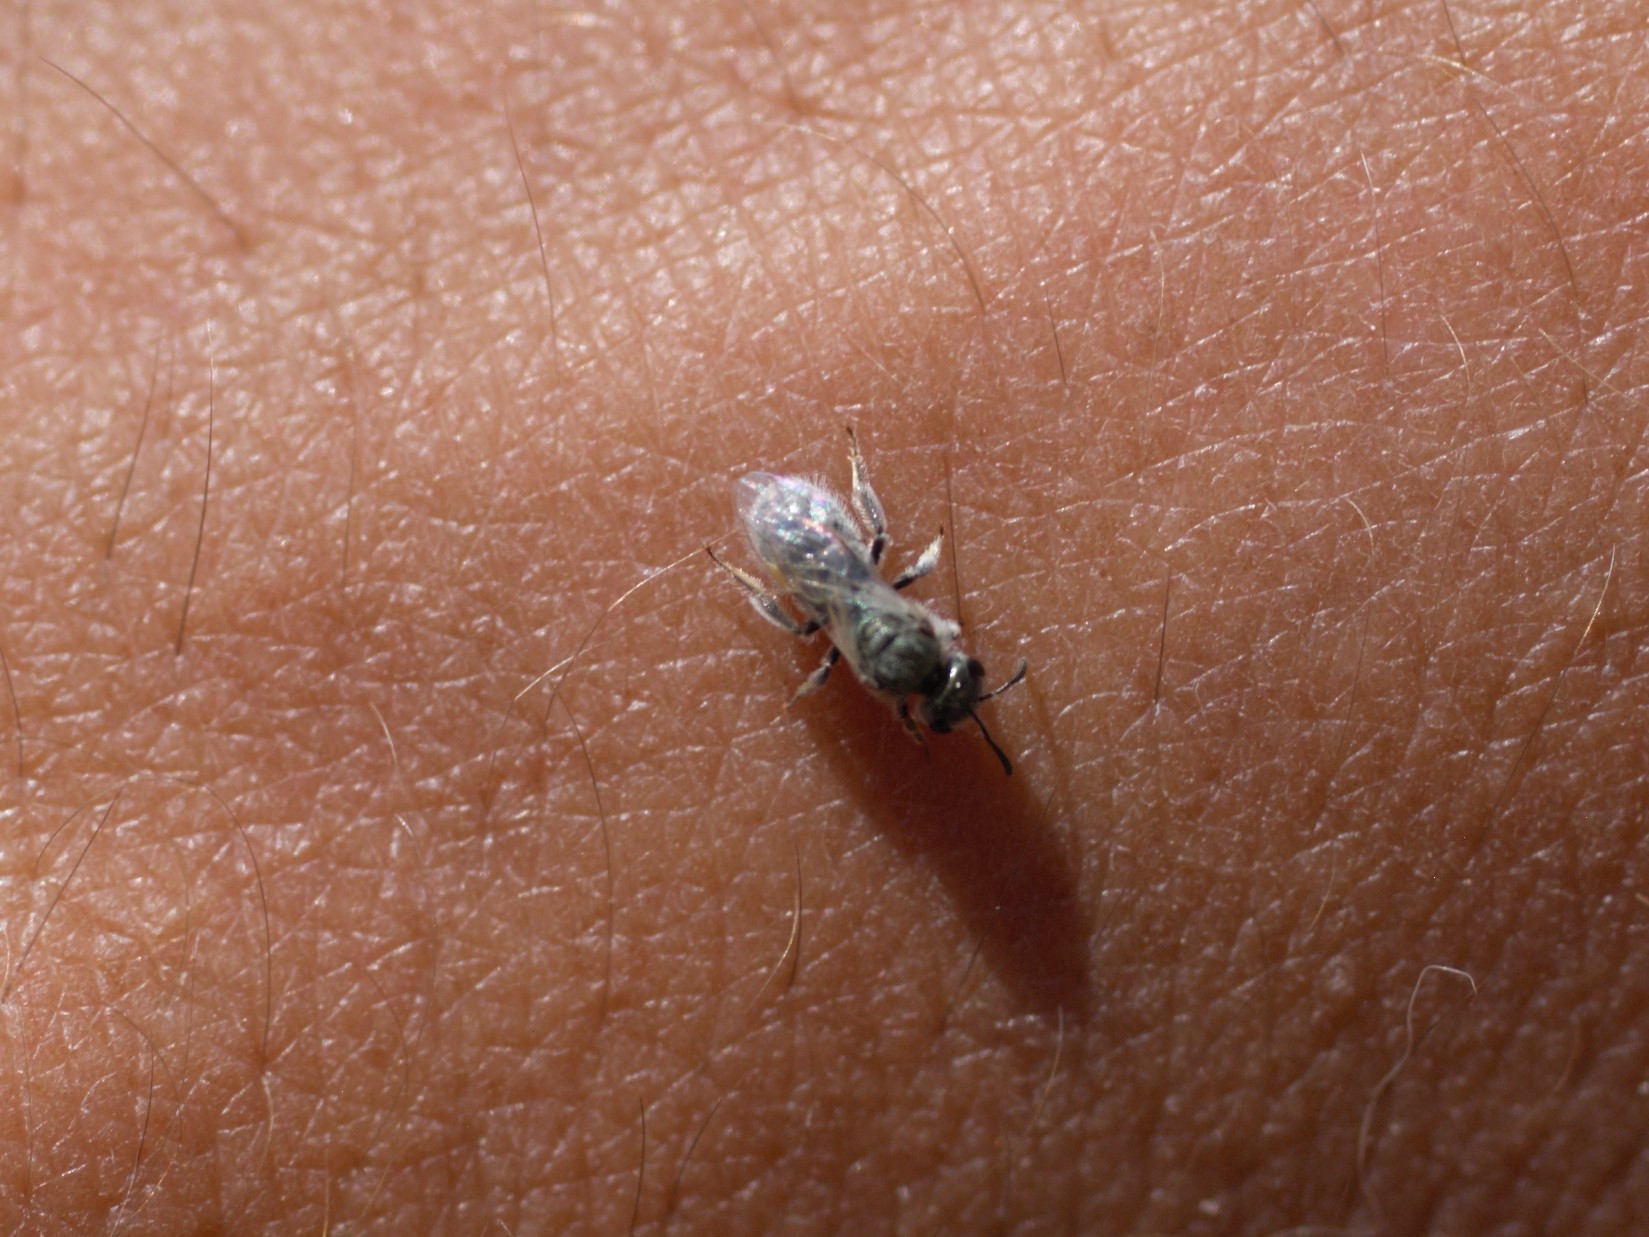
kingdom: Animalia
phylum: Arthropoda
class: Insecta
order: Hymenoptera
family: Halictidae
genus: Dialictus
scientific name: Dialictus
